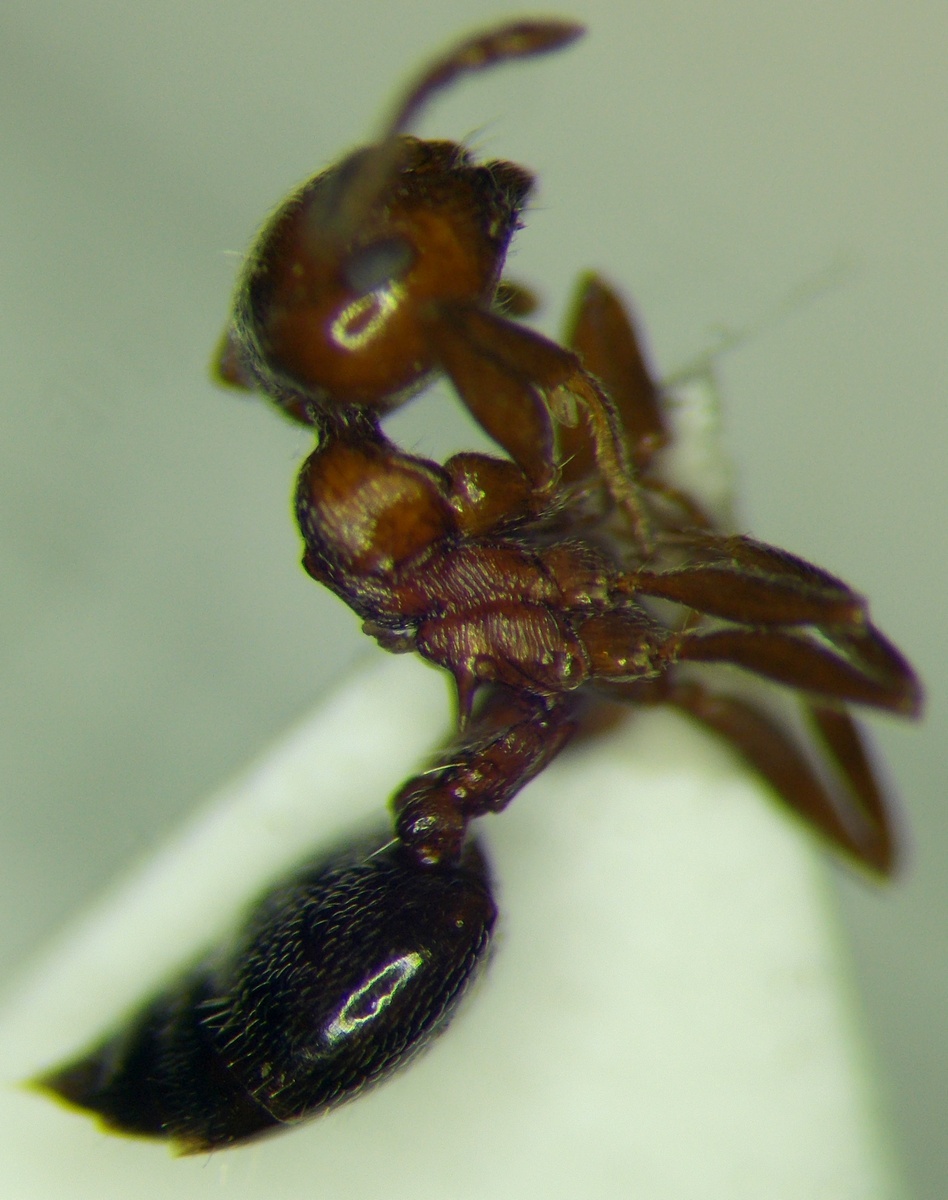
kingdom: Animalia
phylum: Arthropoda
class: Insecta
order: Hymenoptera
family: Formicidae
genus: Crematogaster
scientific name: Crematogaster schmidti
